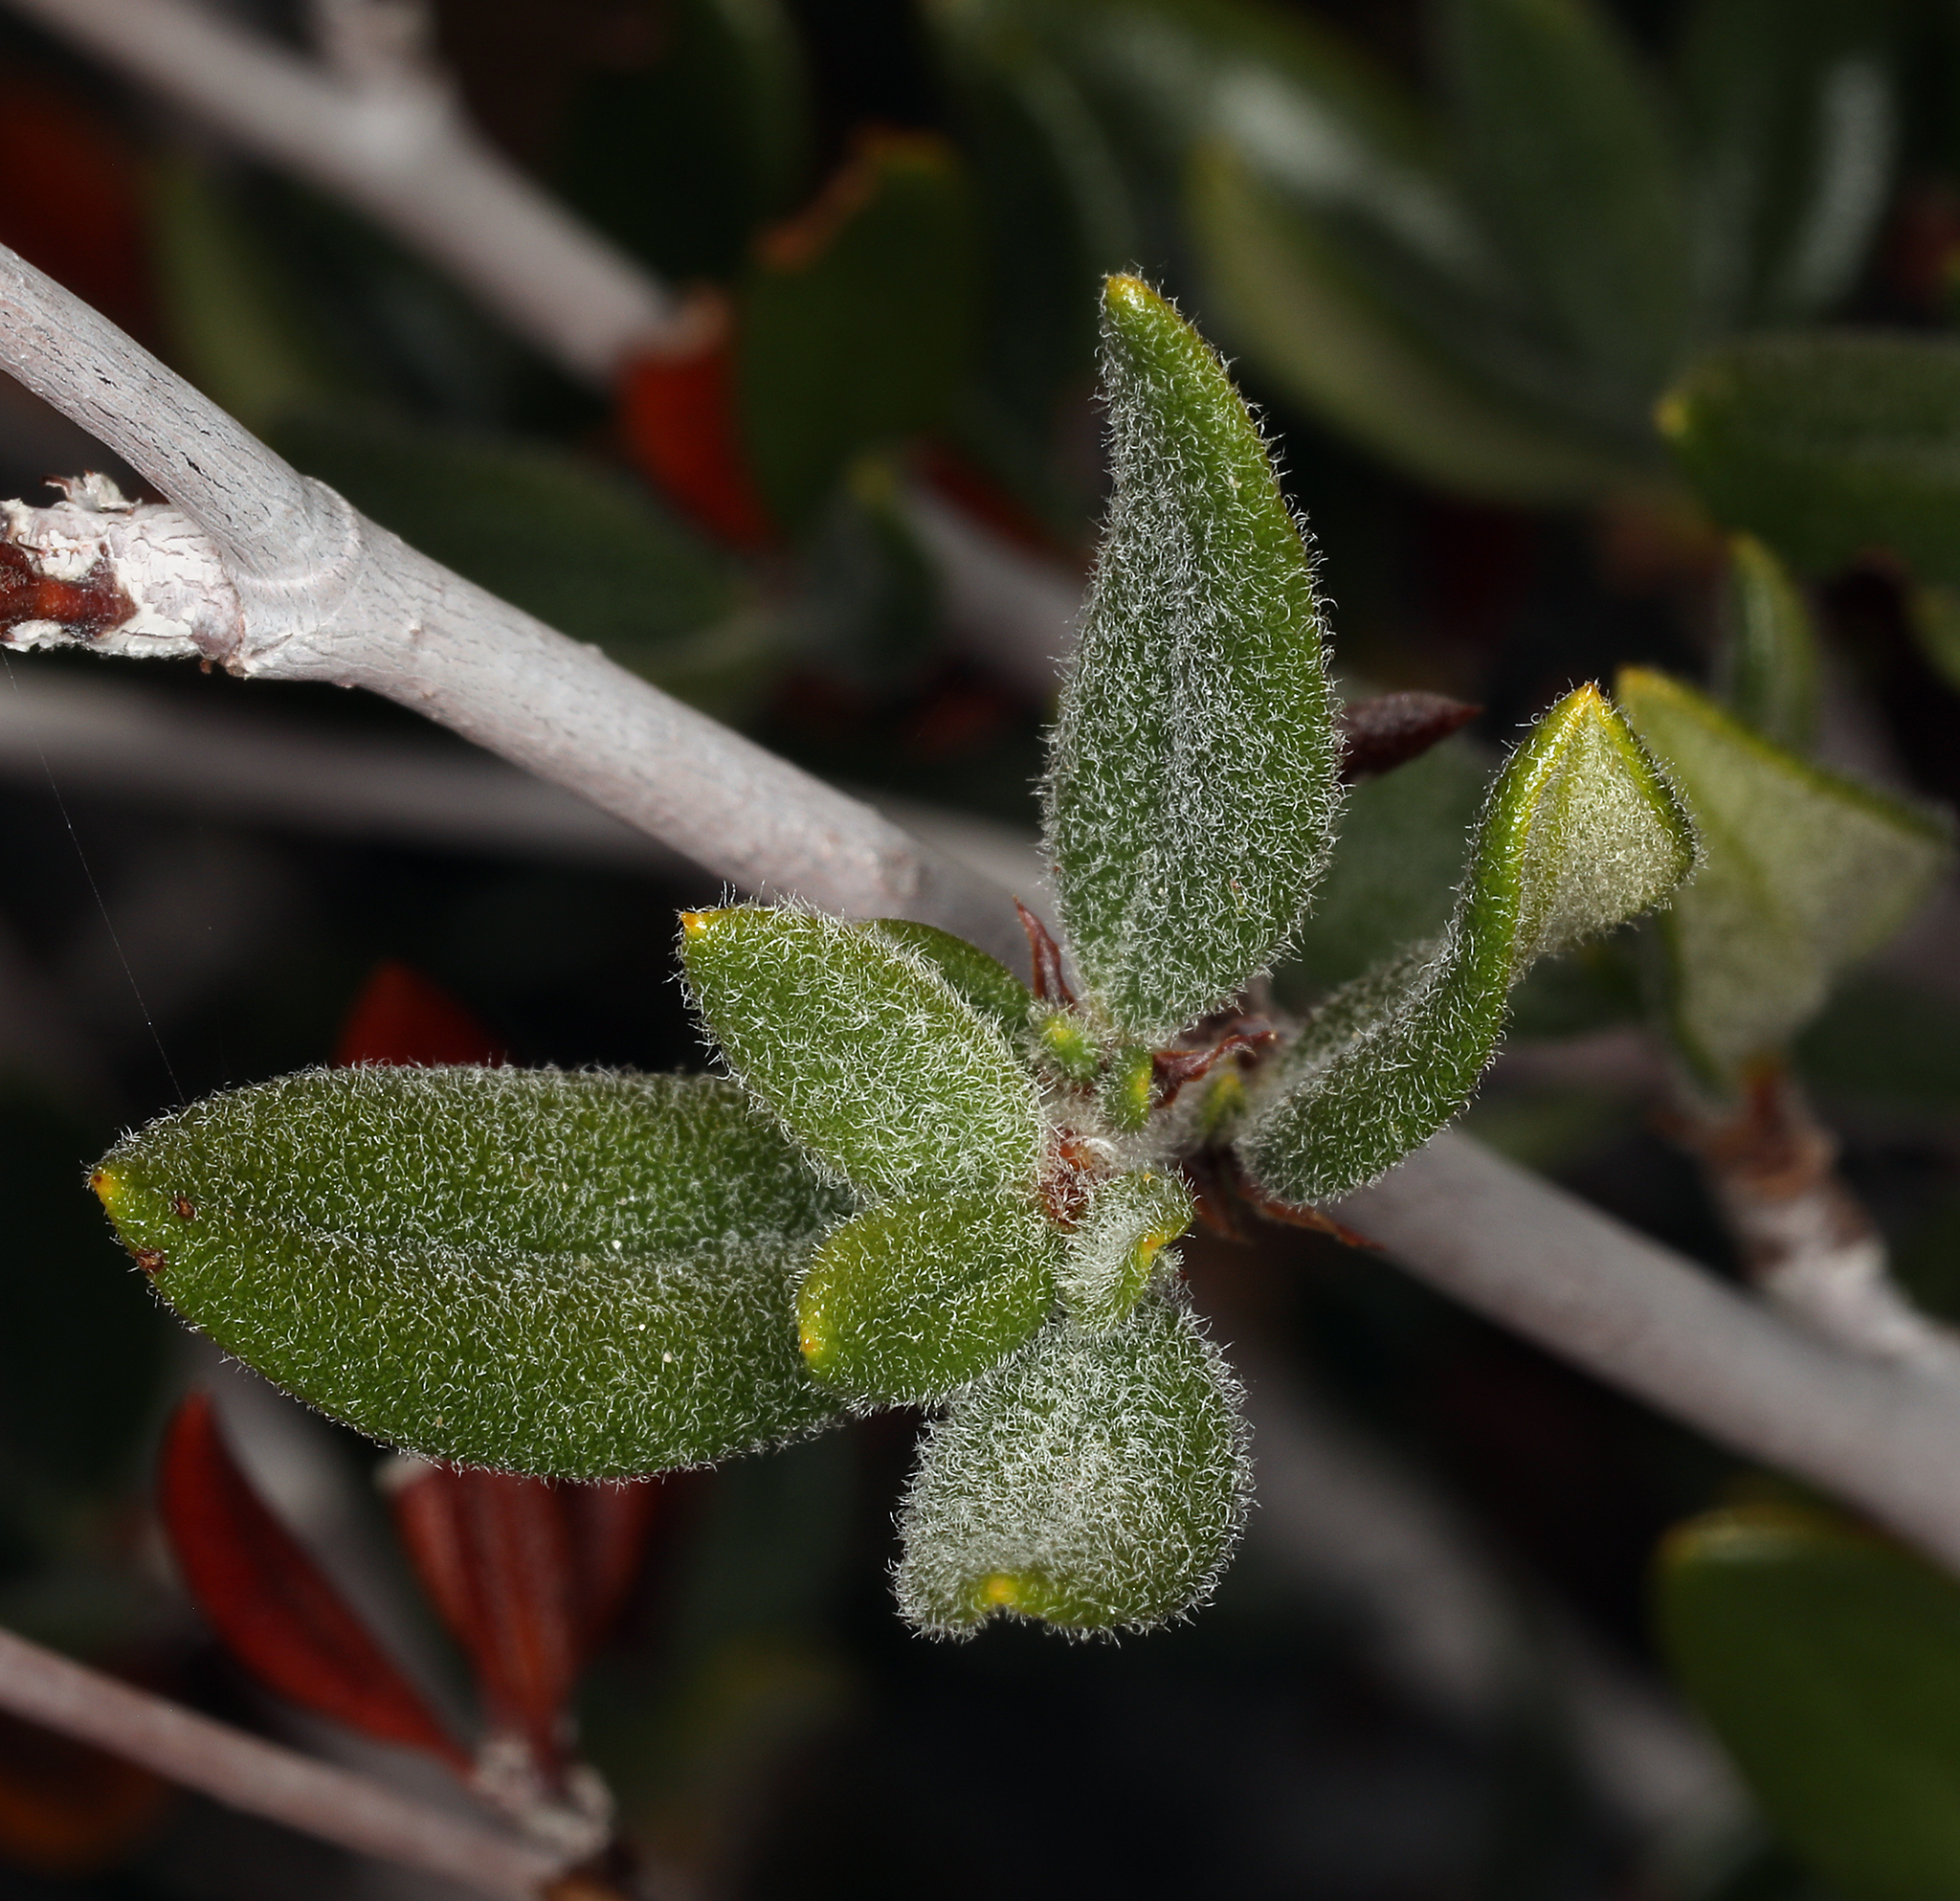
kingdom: Plantae
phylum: Tracheophyta
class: Magnoliopsida
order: Rosales
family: Rosaceae
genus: Cercocarpus
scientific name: Cercocarpus ledifolius
